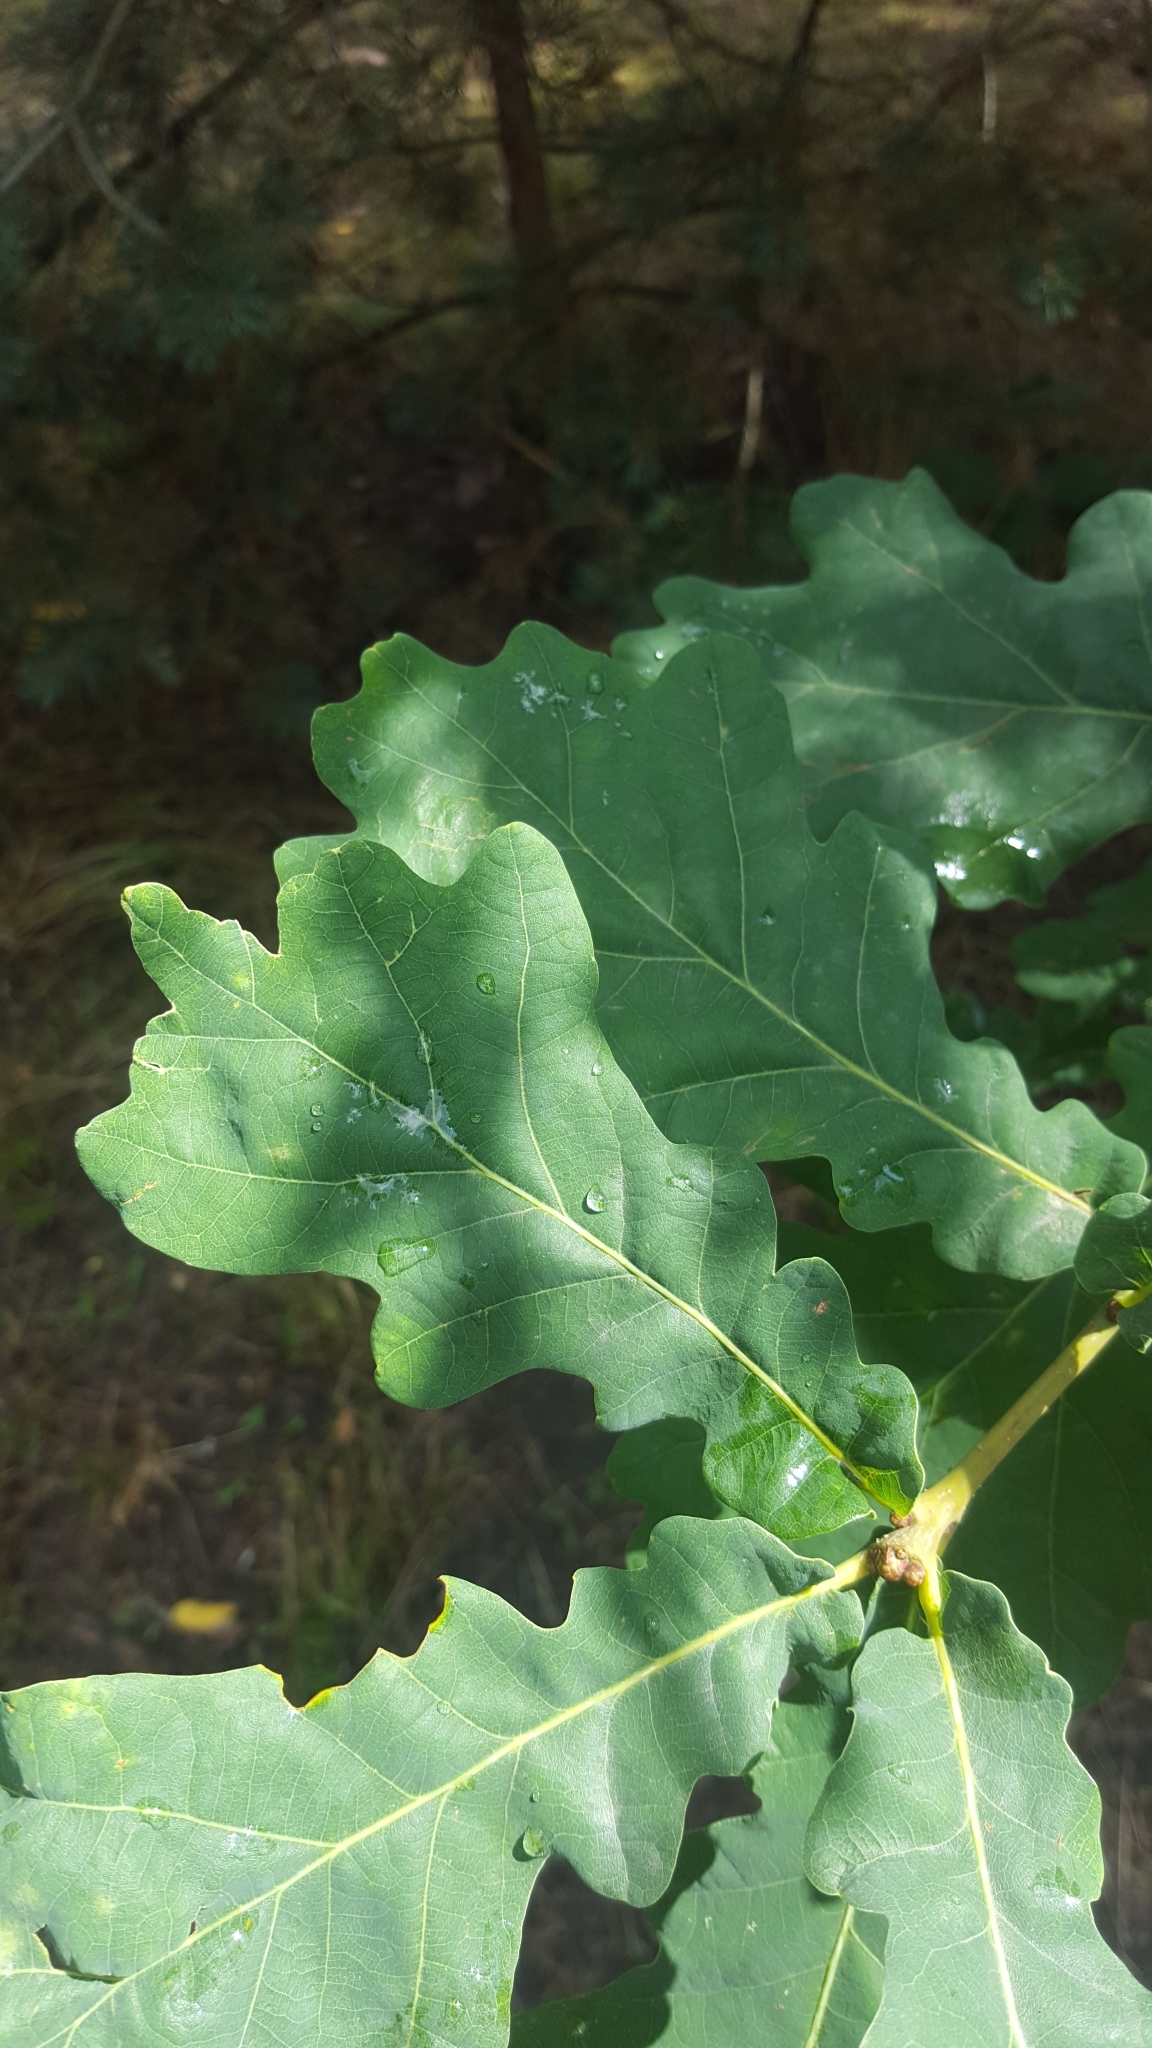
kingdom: Plantae
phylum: Tracheophyta
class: Magnoliopsida
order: Fagales
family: Fagaceae
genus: Quercus
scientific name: Quercus robur
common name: Pedunculate oak
